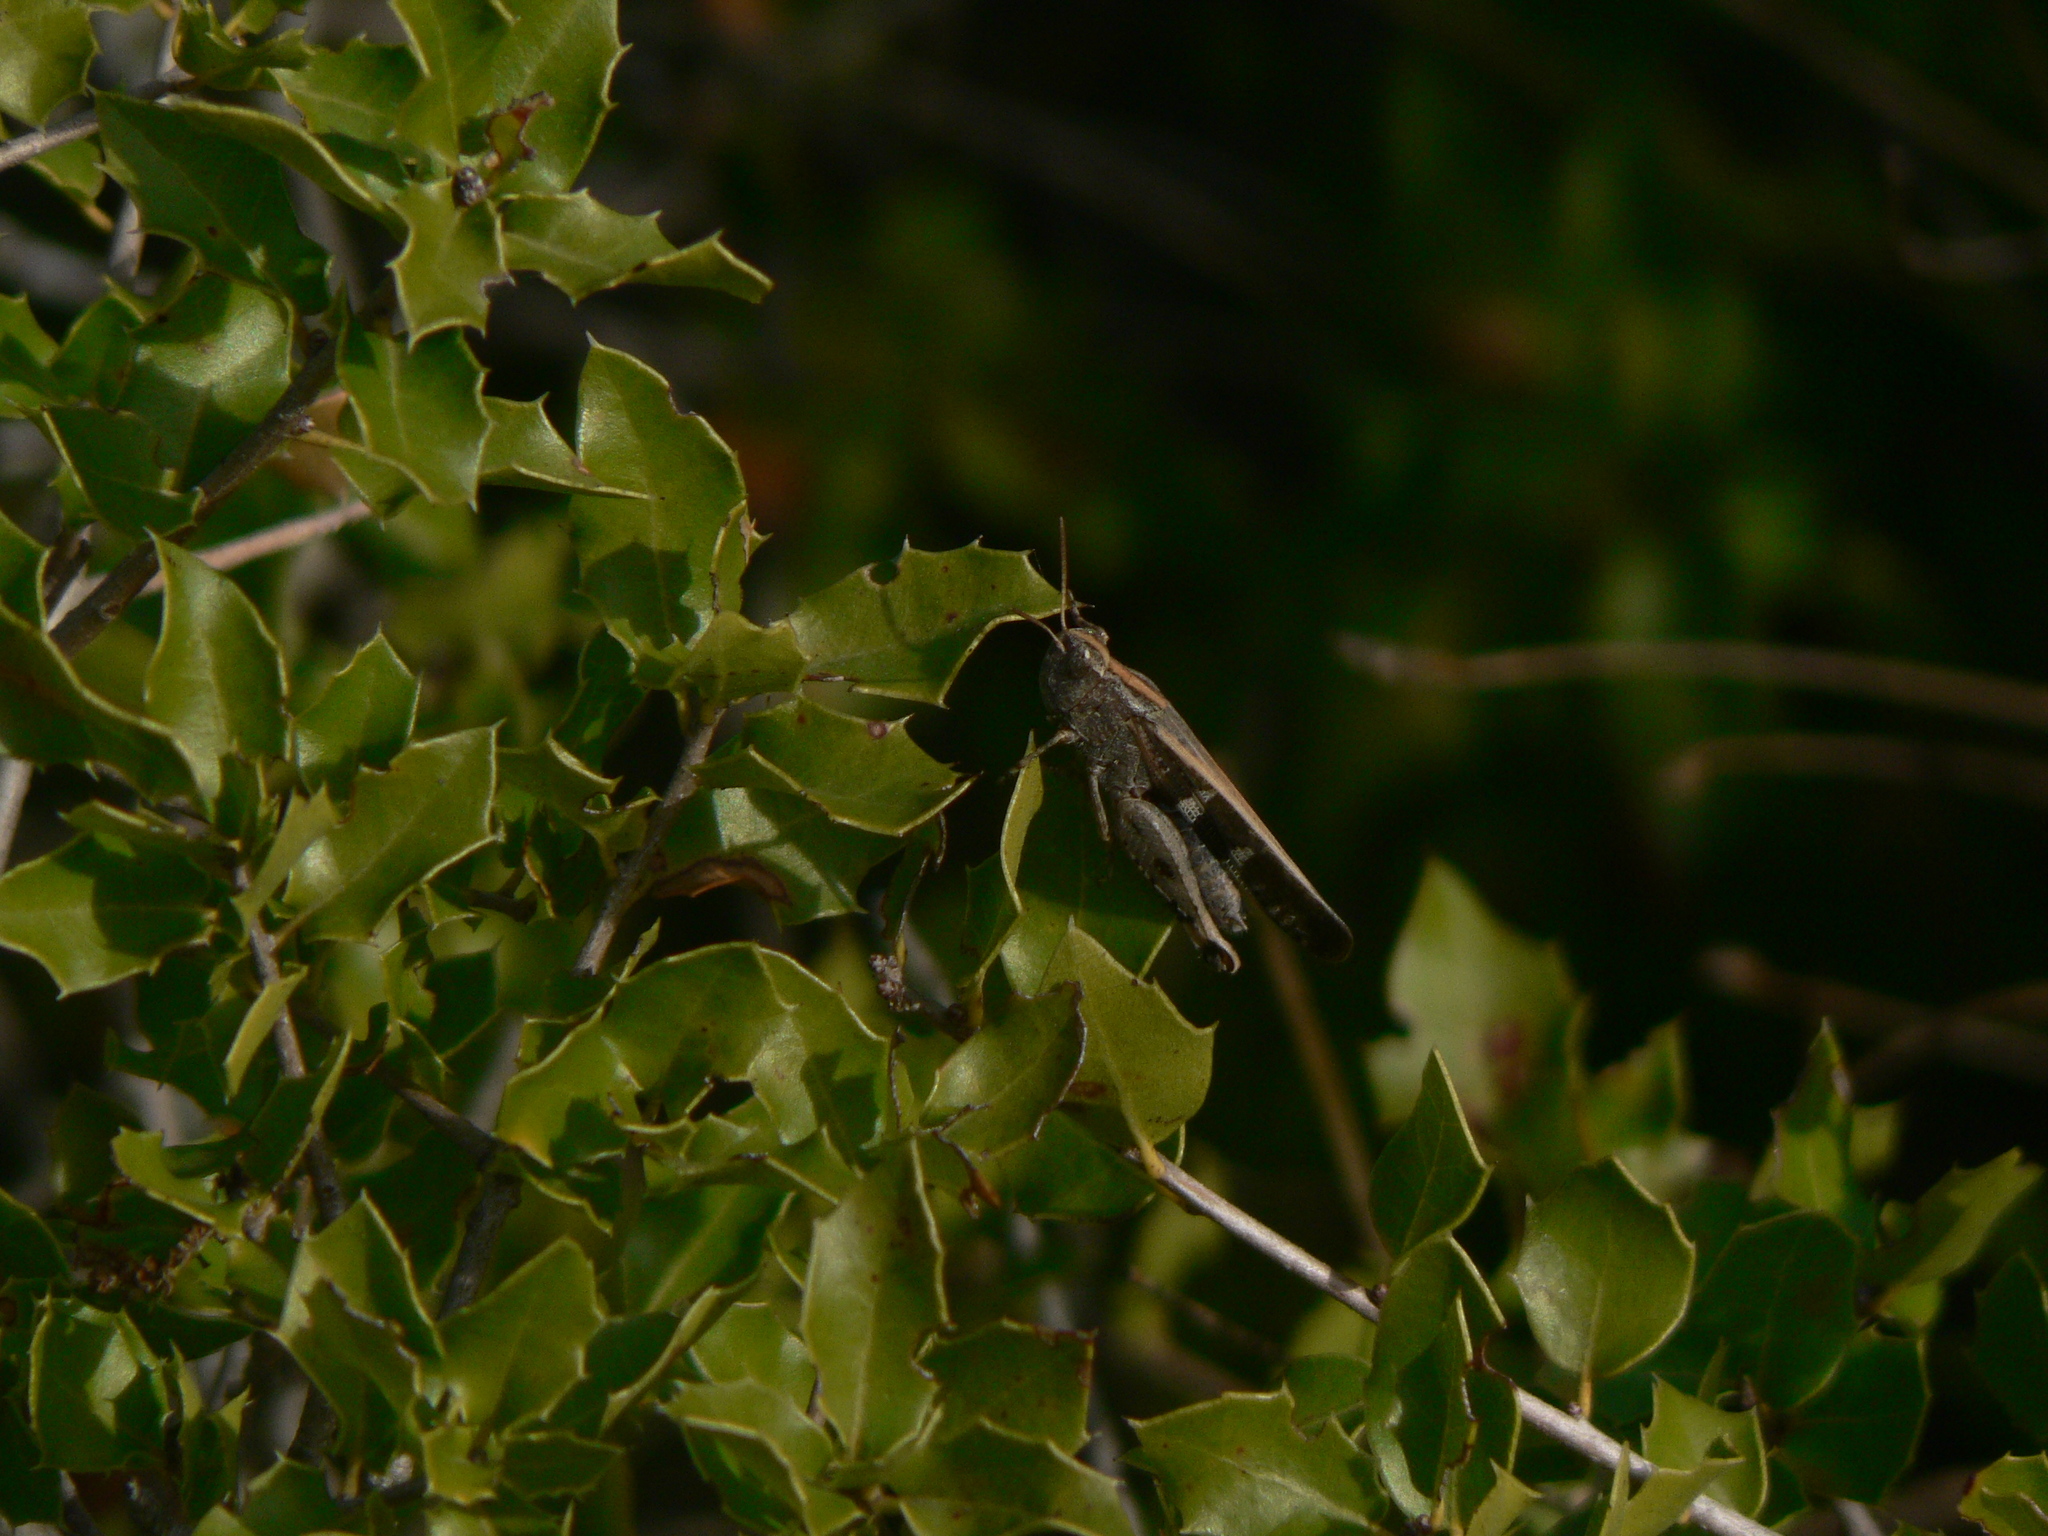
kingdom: Animalia
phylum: Arthropoda
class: Insecta
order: Orthoptera
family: Acrididae
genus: Aiolopus
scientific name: Aiolopus strepens
